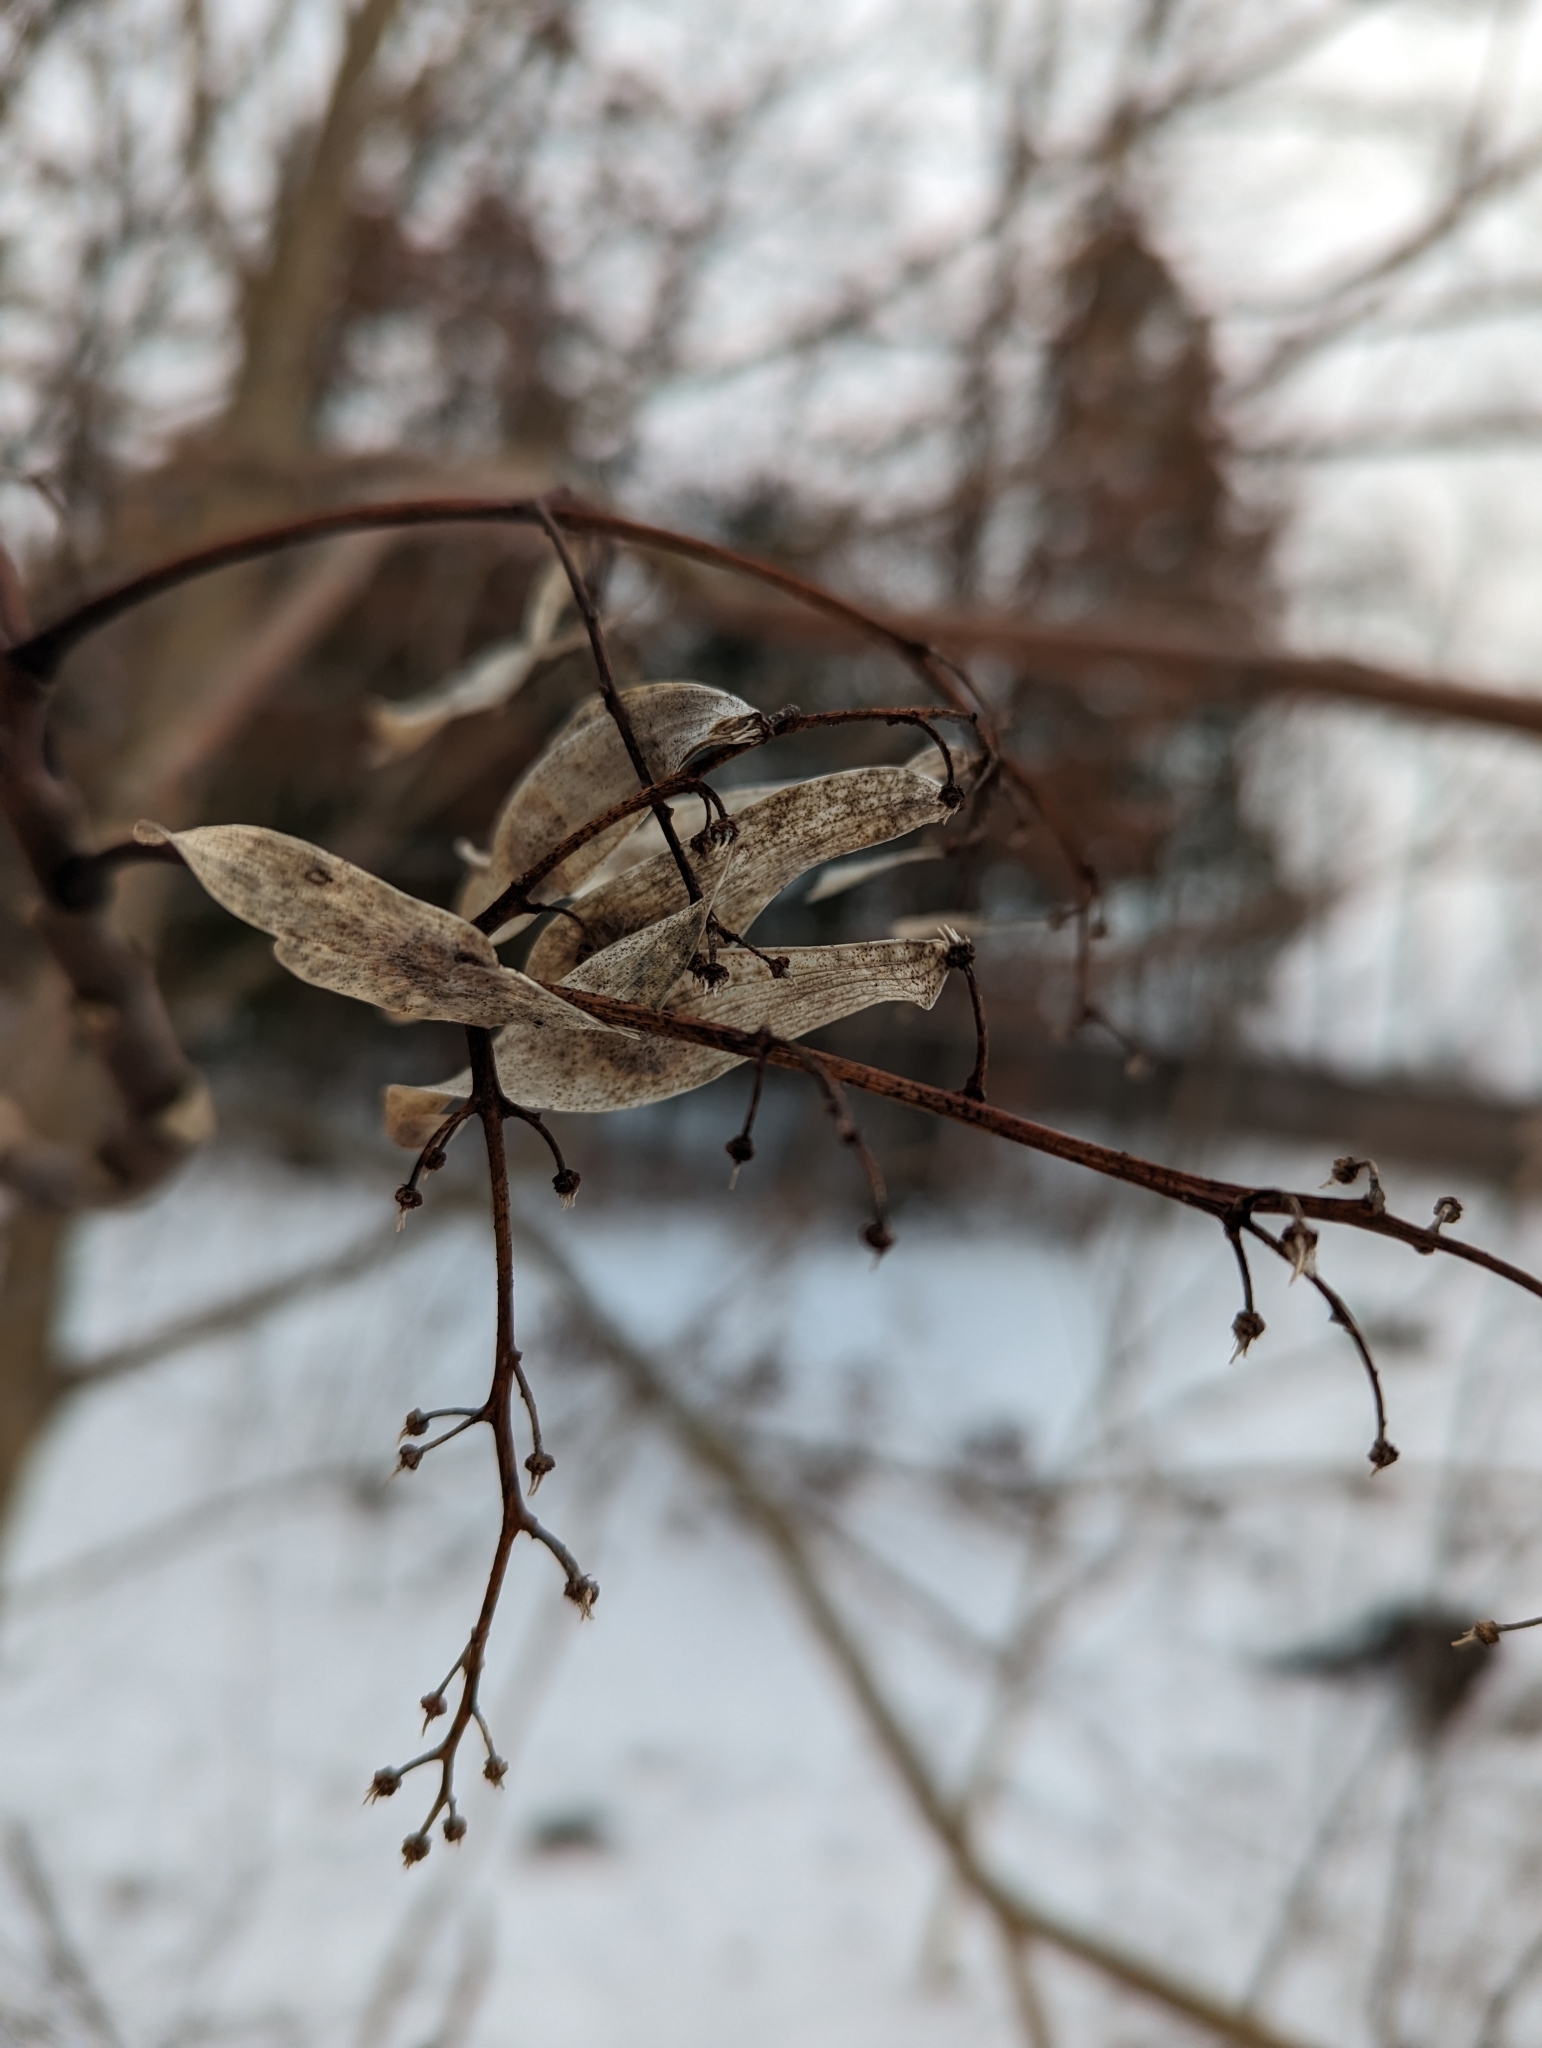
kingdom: Plantae
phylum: Tracheophyta
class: Magnoliopsida
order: Sapindales
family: Simaroubaceae
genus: Ailanthus
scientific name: Ailanthus altissima
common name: Tree-of-heaven
